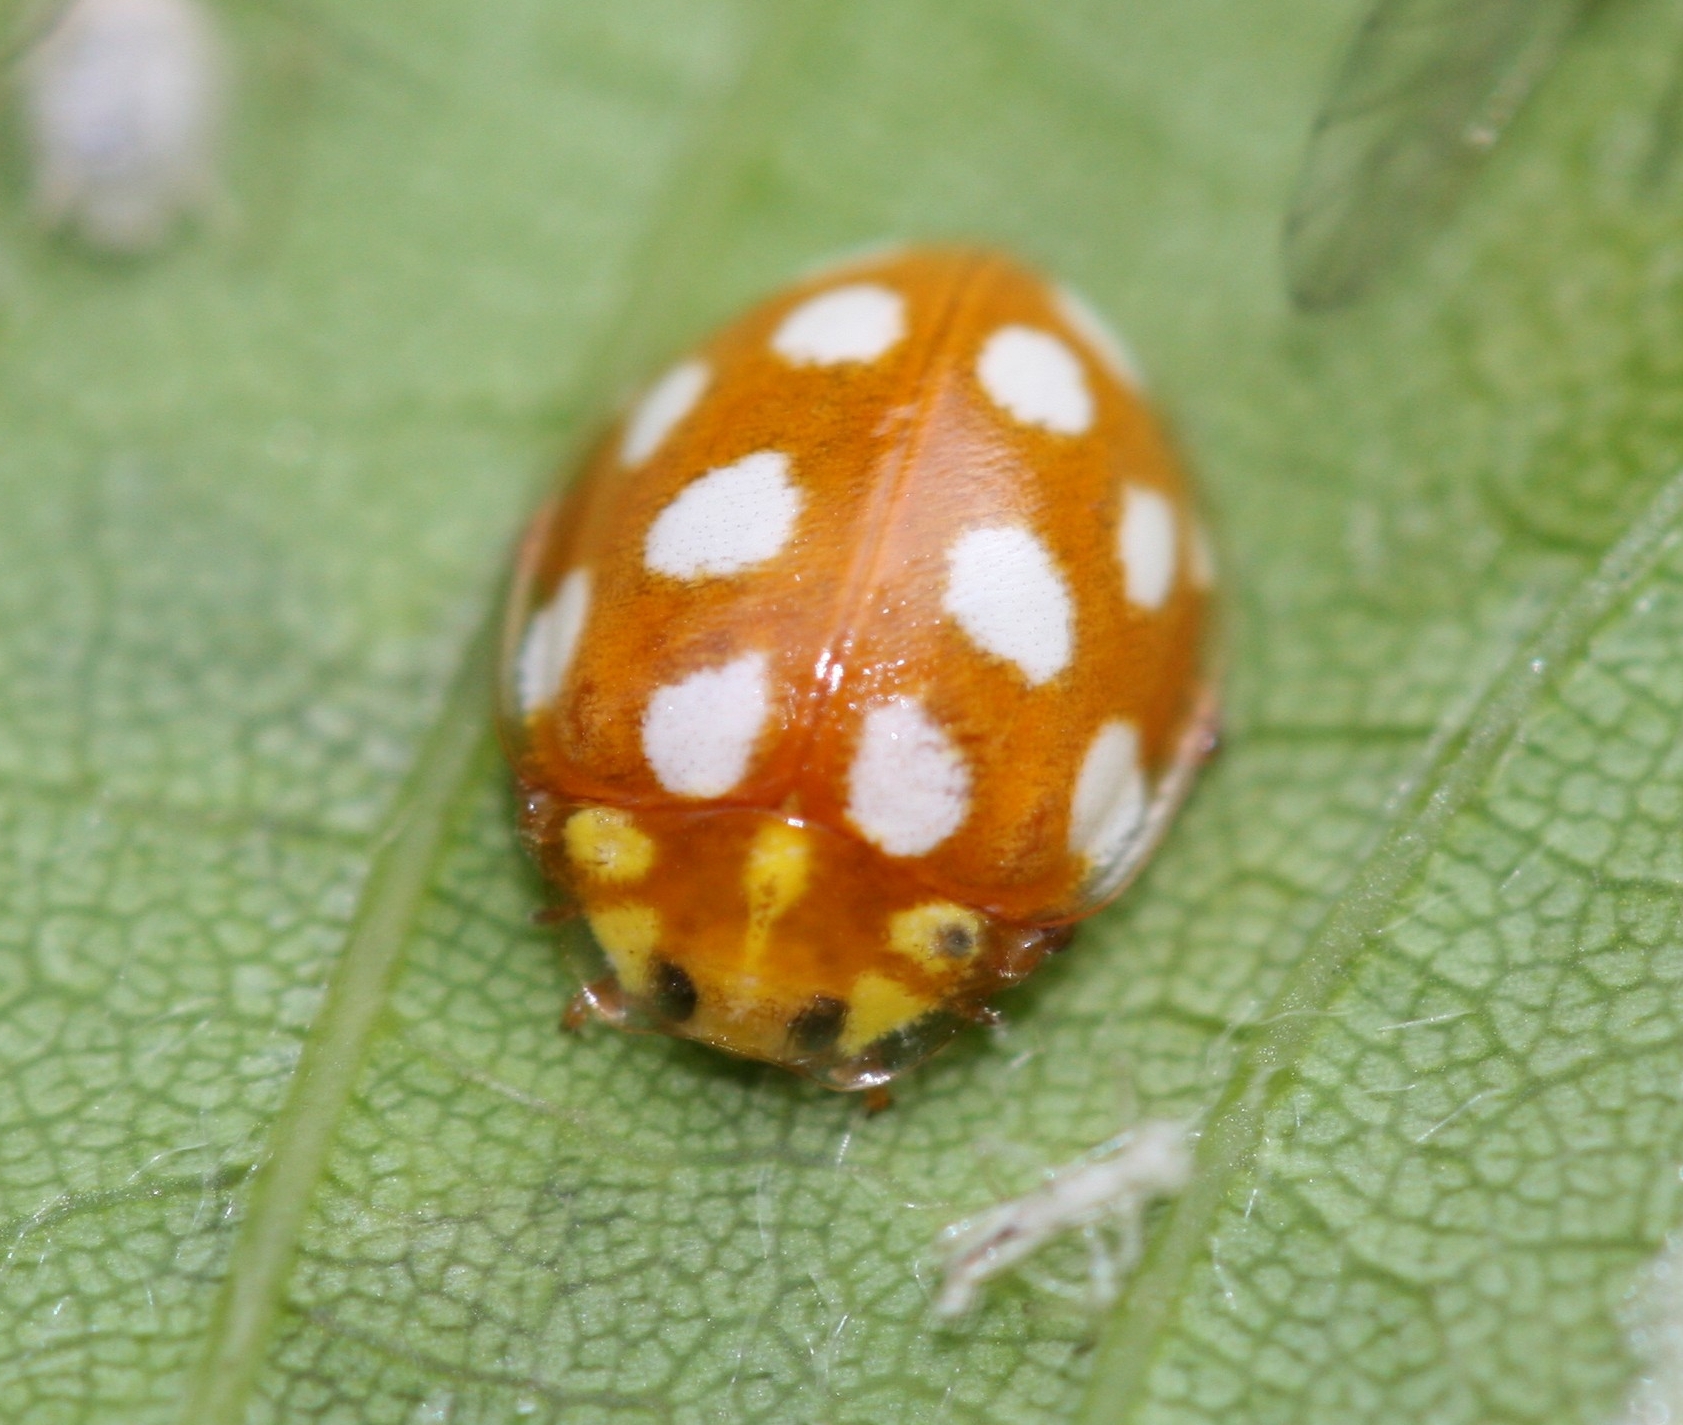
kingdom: Animalia
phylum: Arthropoda
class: Insecta
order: Coleoptera
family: Coccinellidae
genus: Halyzia
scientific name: Halyzia sedecimguttata
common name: Orange ladybird
